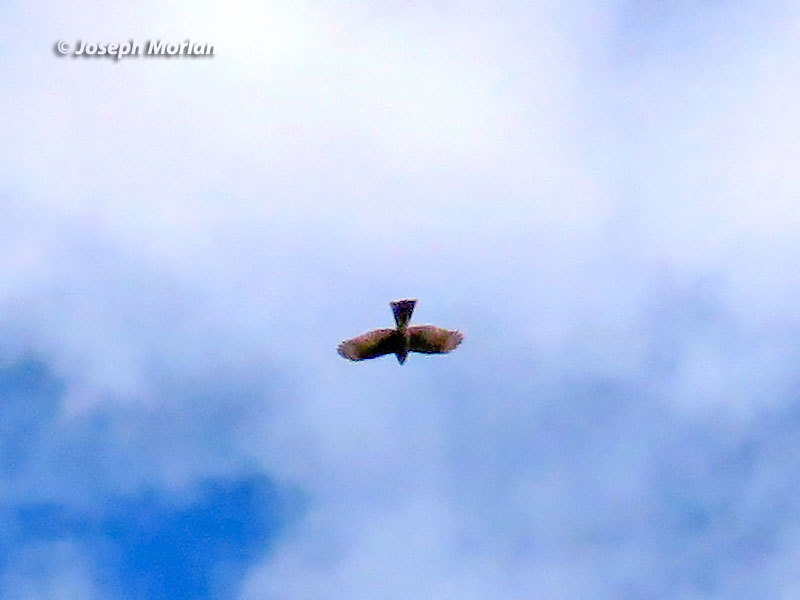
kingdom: Animalia
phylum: Chordata
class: Aves
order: Accipitriformes
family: Accipitridae
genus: Accipiter
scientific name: Accipiter striatus
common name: Sharp-shinned hawk
